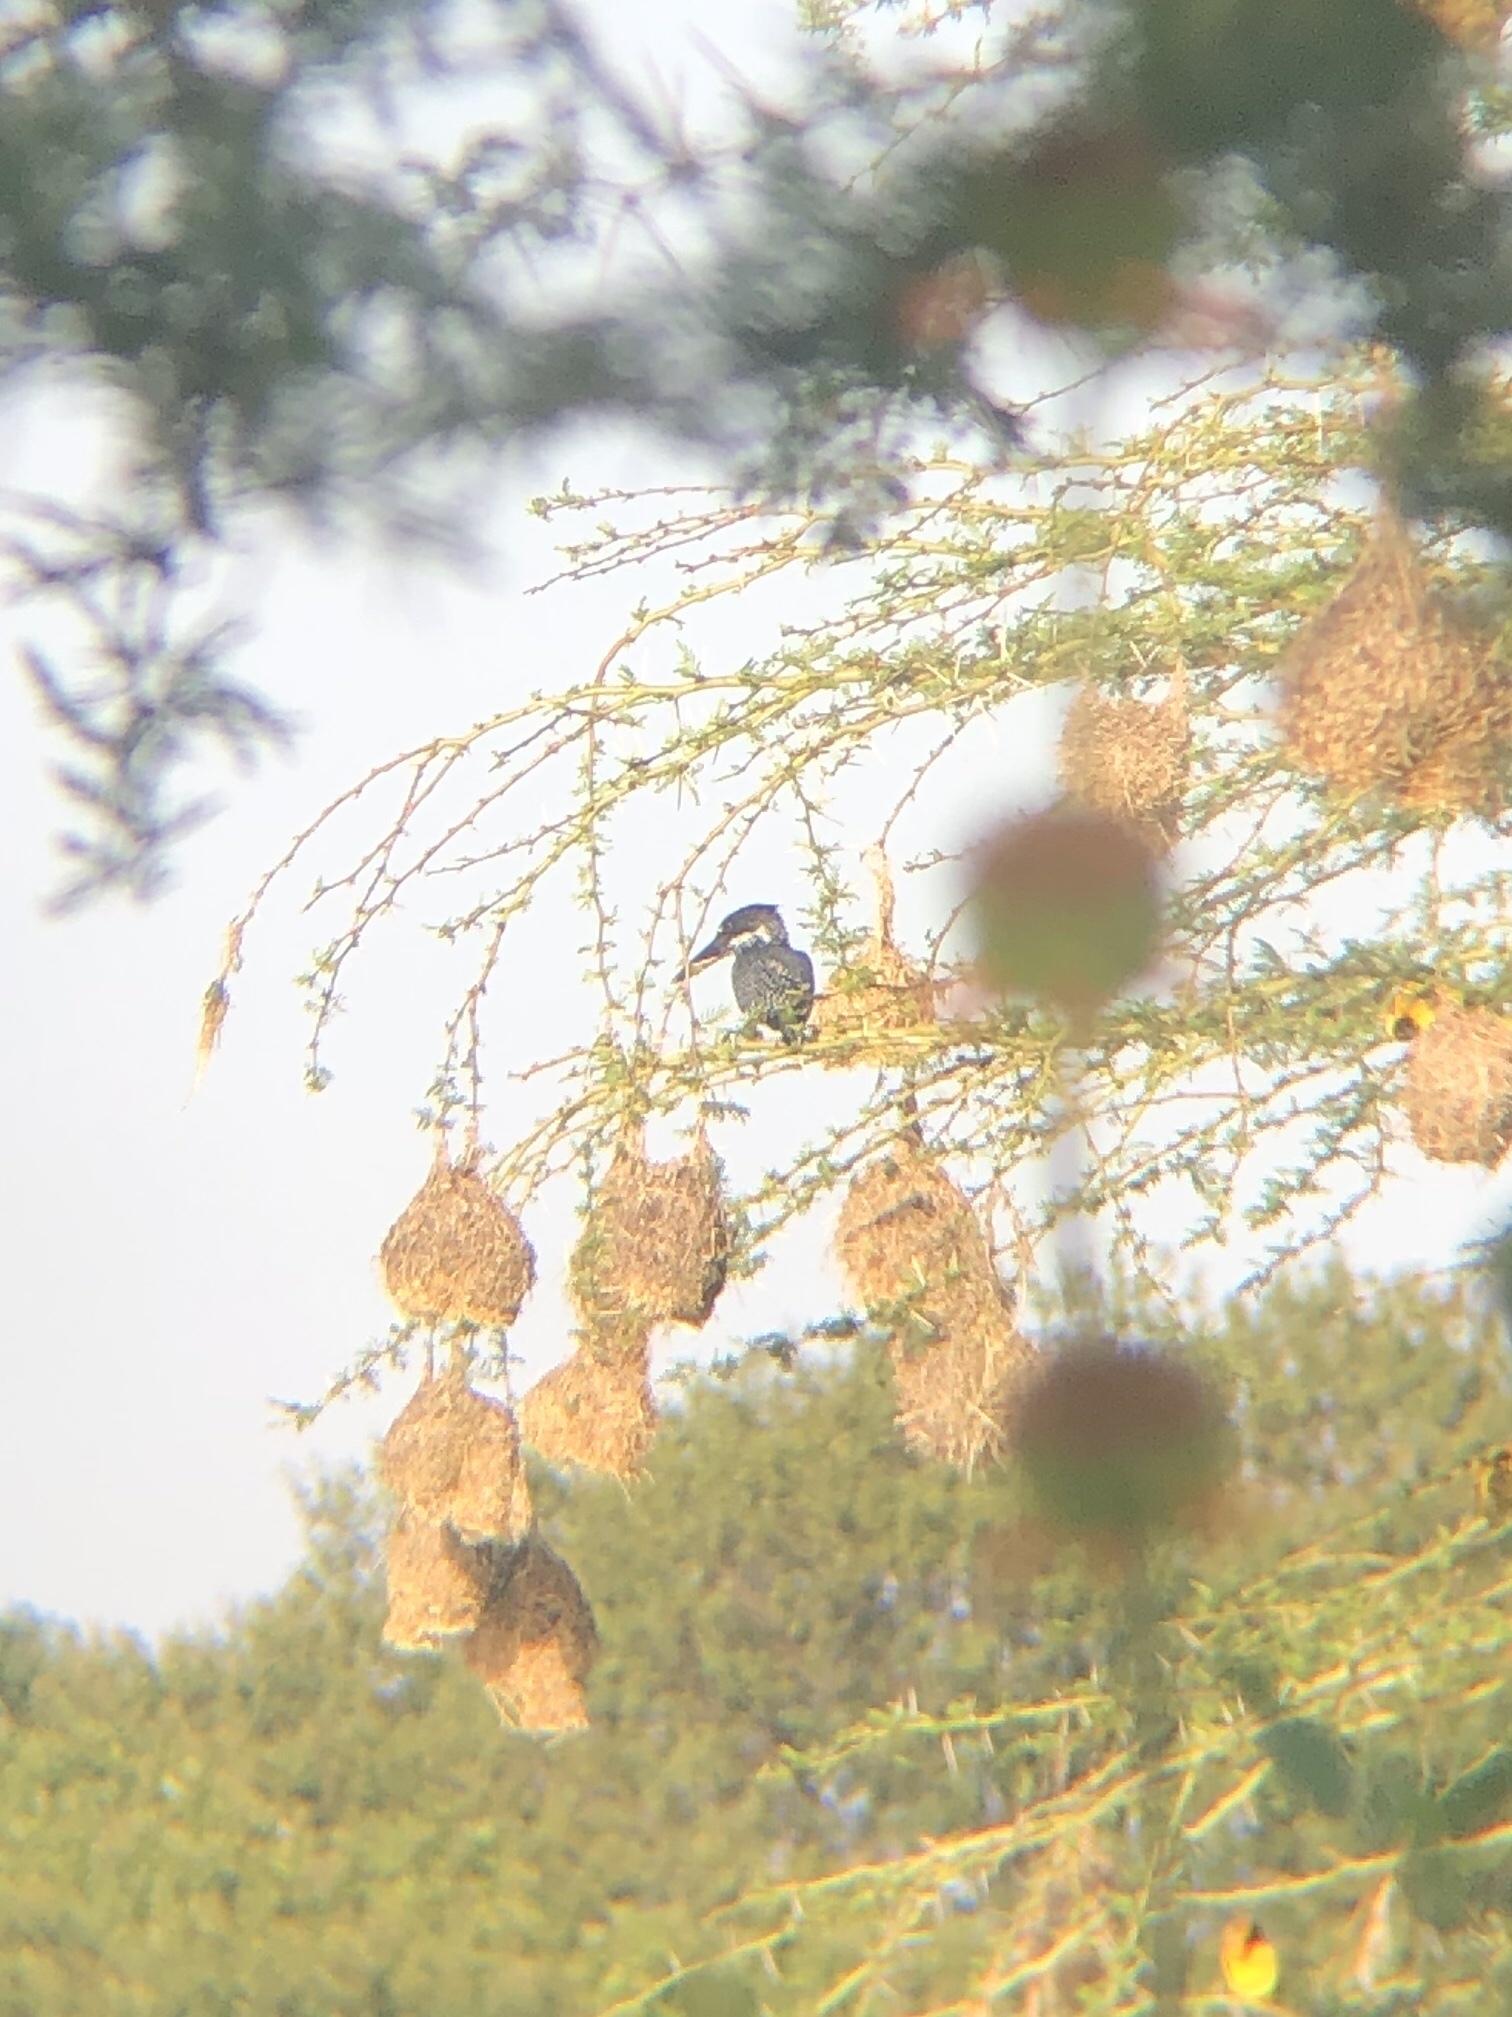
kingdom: Animalia
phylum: Chordata
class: Aves
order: Coraciiformes
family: Alcedinidae
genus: Megaceryle
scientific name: Megaceryle maxima
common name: Giant kingfisher
